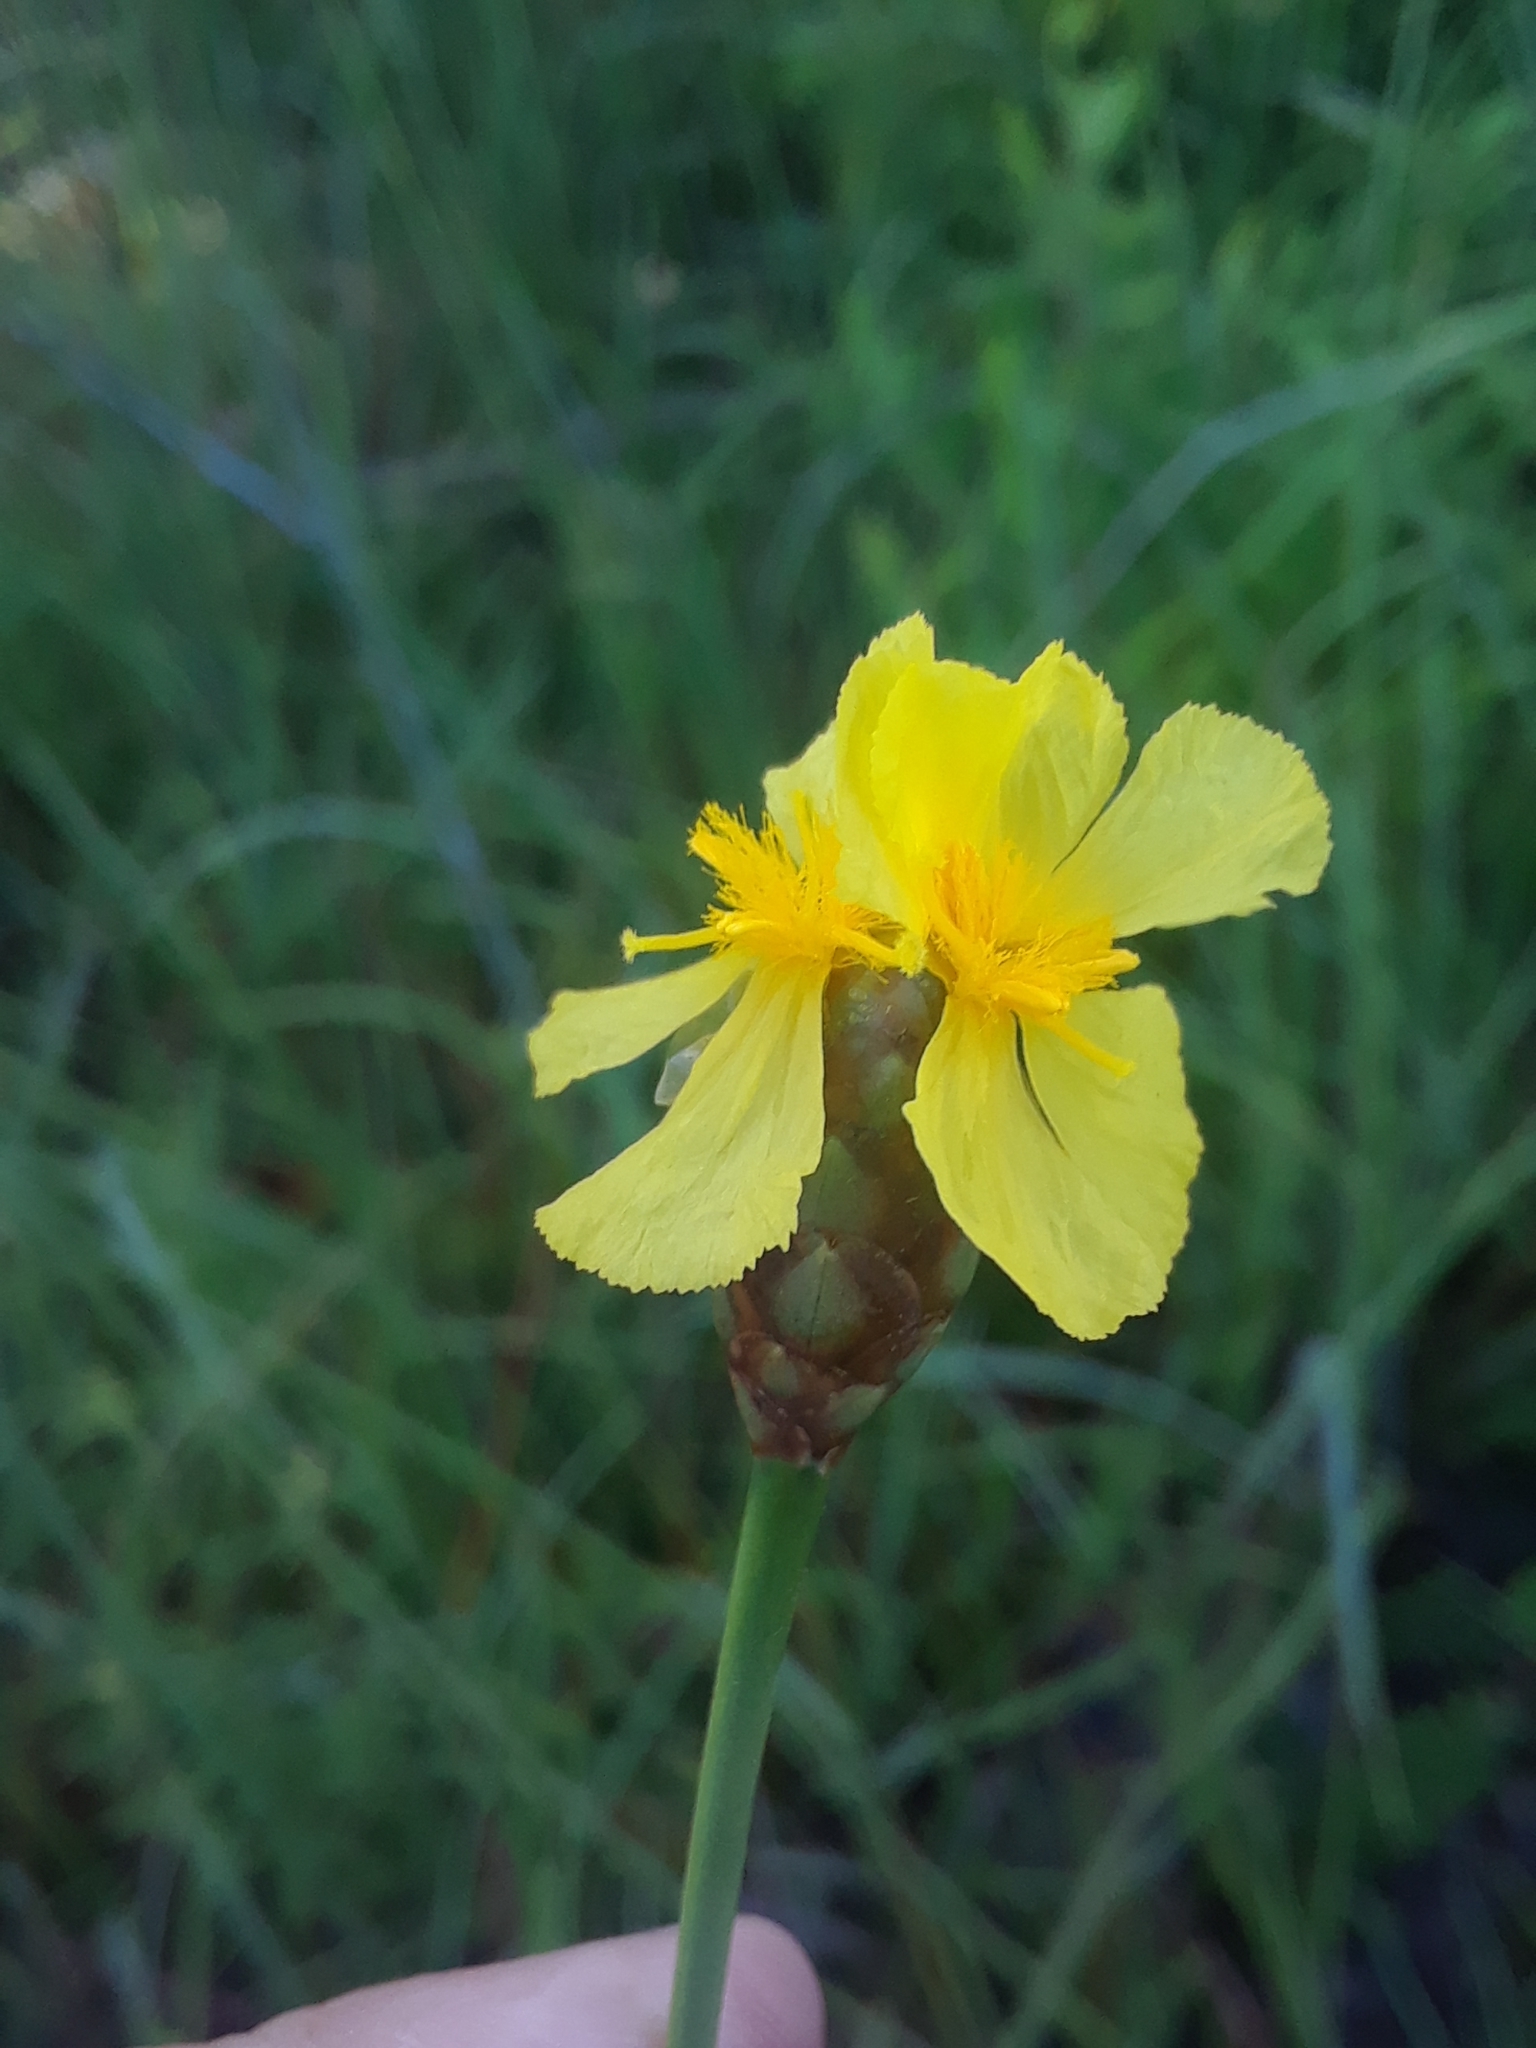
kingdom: Plantae
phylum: Tracheophyta
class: Liliopsida
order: Poales
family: Xyridaceae
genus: Xyris
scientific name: Xyris ambigua
